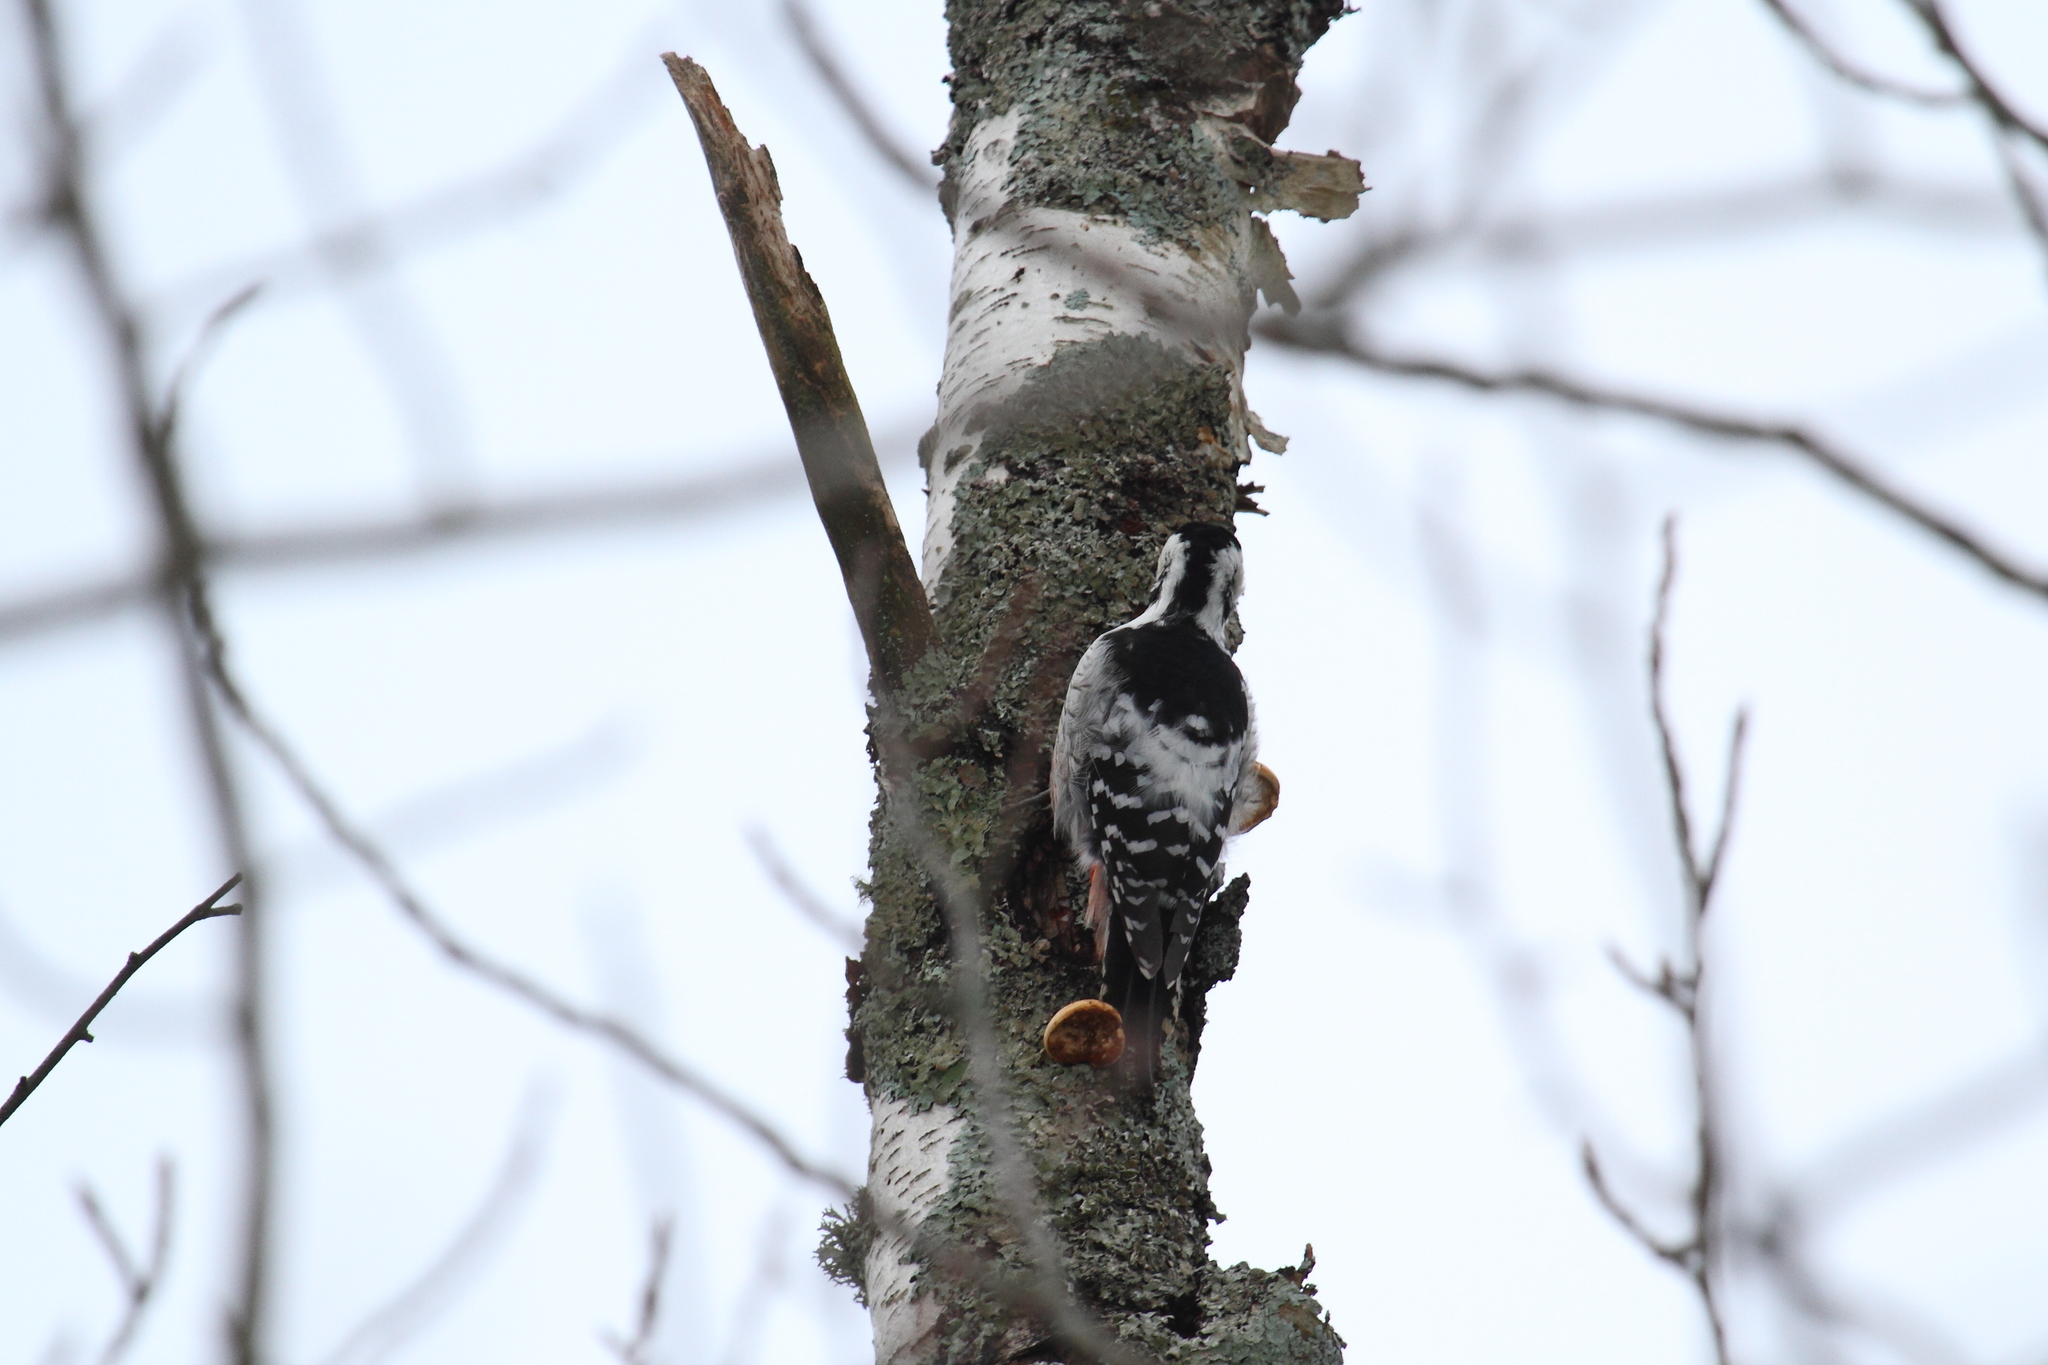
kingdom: Animalia
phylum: Chordata
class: Aves
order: Piciformes
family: Picidae
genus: Dendrocopos
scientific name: Dendrocopos leucotos
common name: White-backed woodpecker
